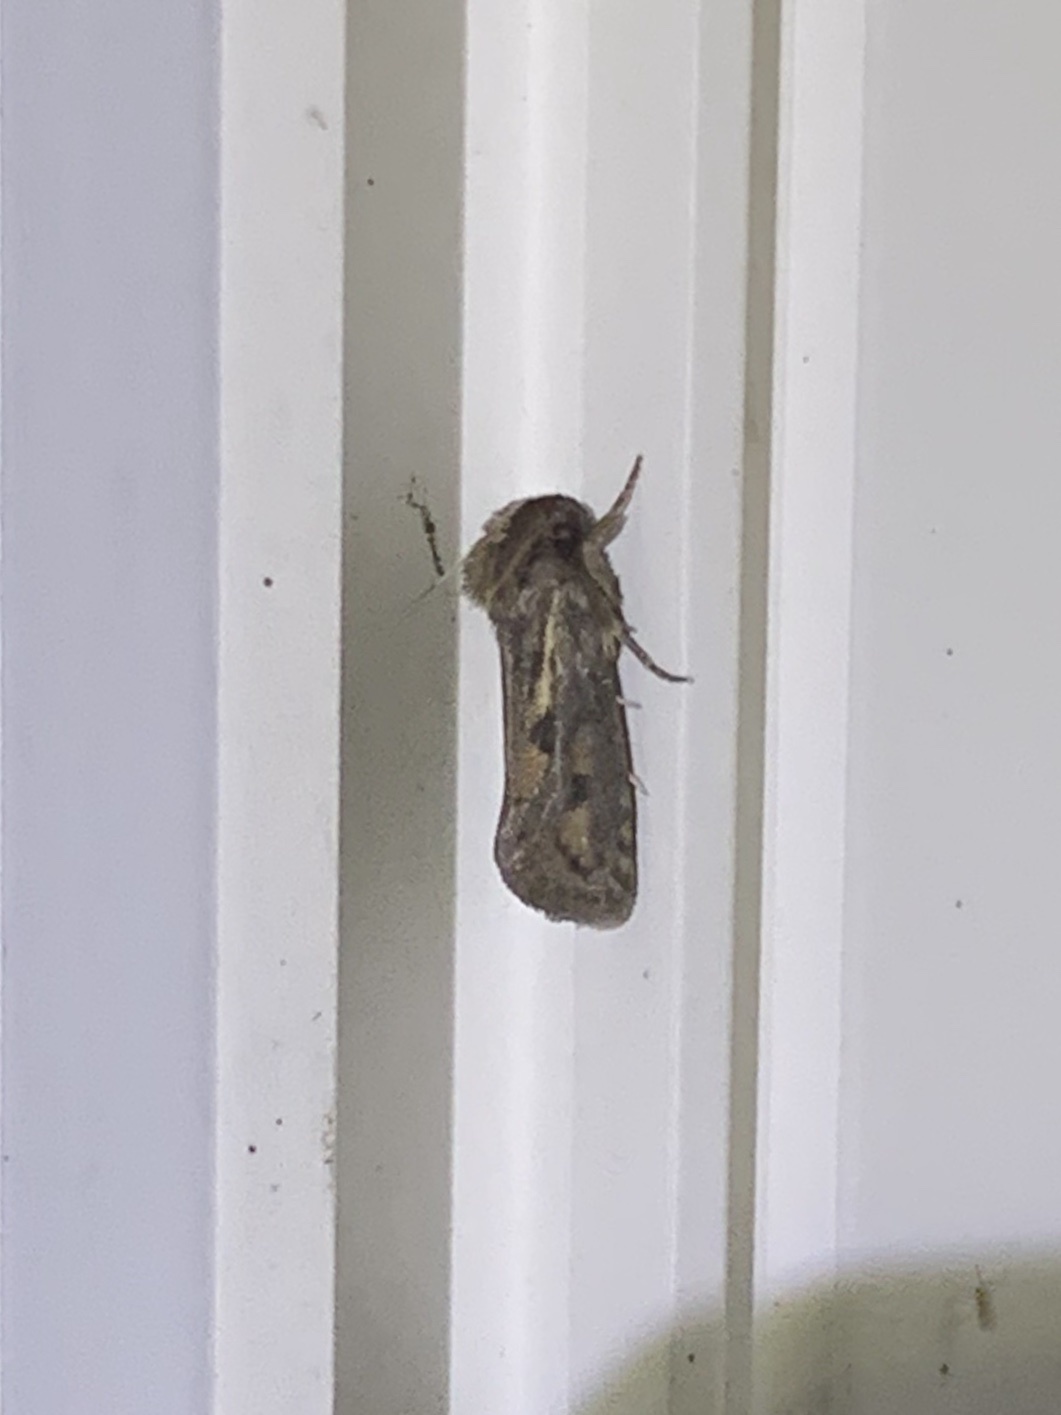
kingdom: Animalia
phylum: Arthropoda
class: Insecta
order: Lepidoptera
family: Tineidae
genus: Acrolophus
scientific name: Acrolophus popeanella
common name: Clemens' grass tubeworm moth
